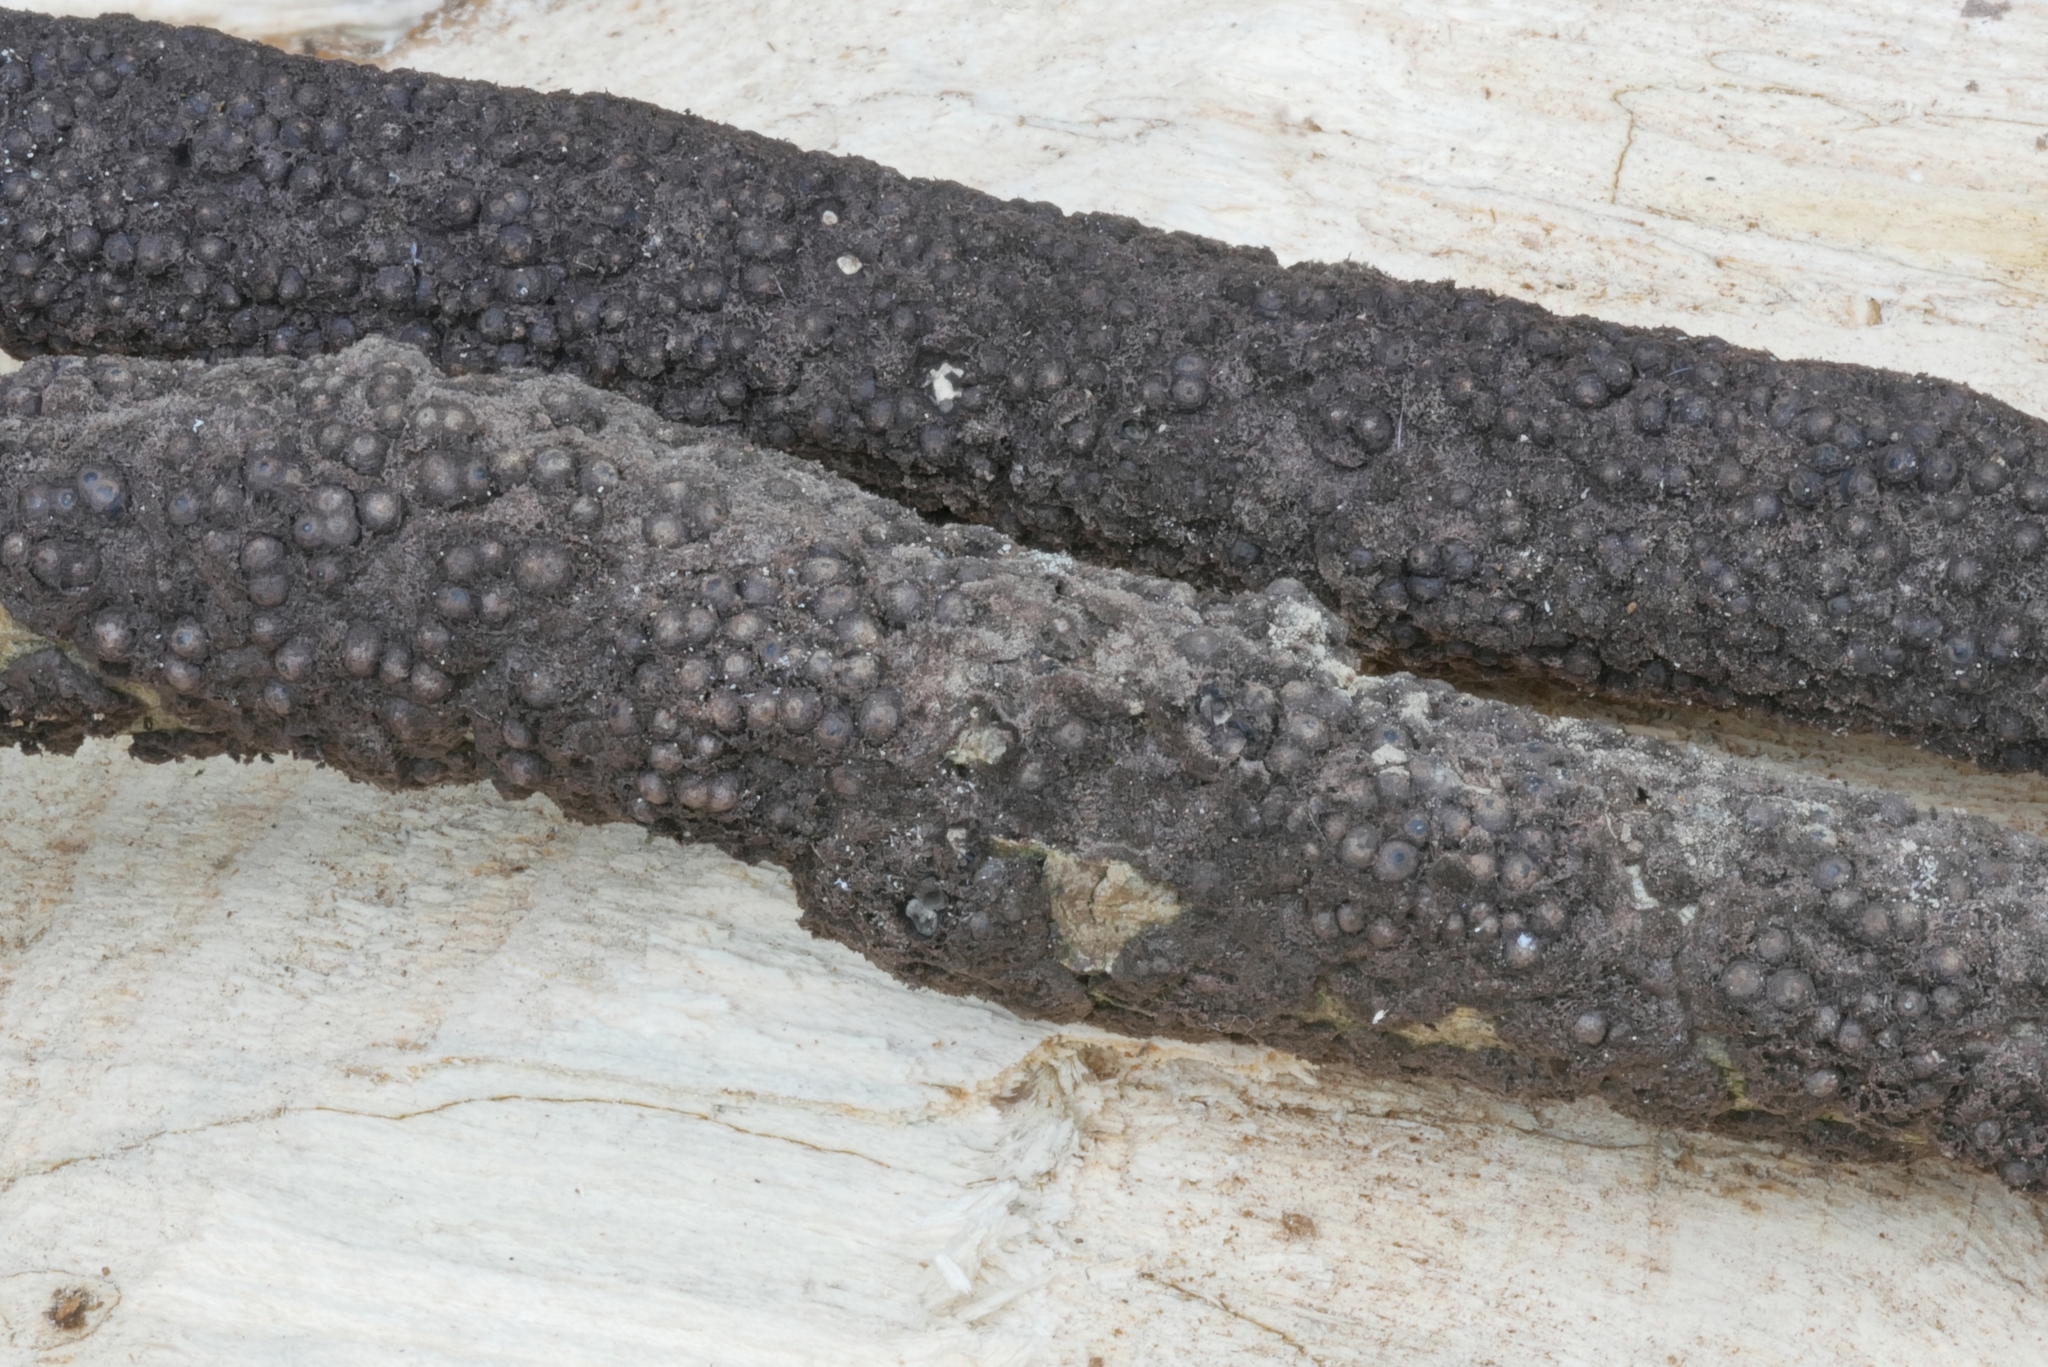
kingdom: Fungi
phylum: Ascomycota
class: Sordariomycetes
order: Xylariales
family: Xylariaceae
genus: Rosellinia
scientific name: Rosellinia corticium
